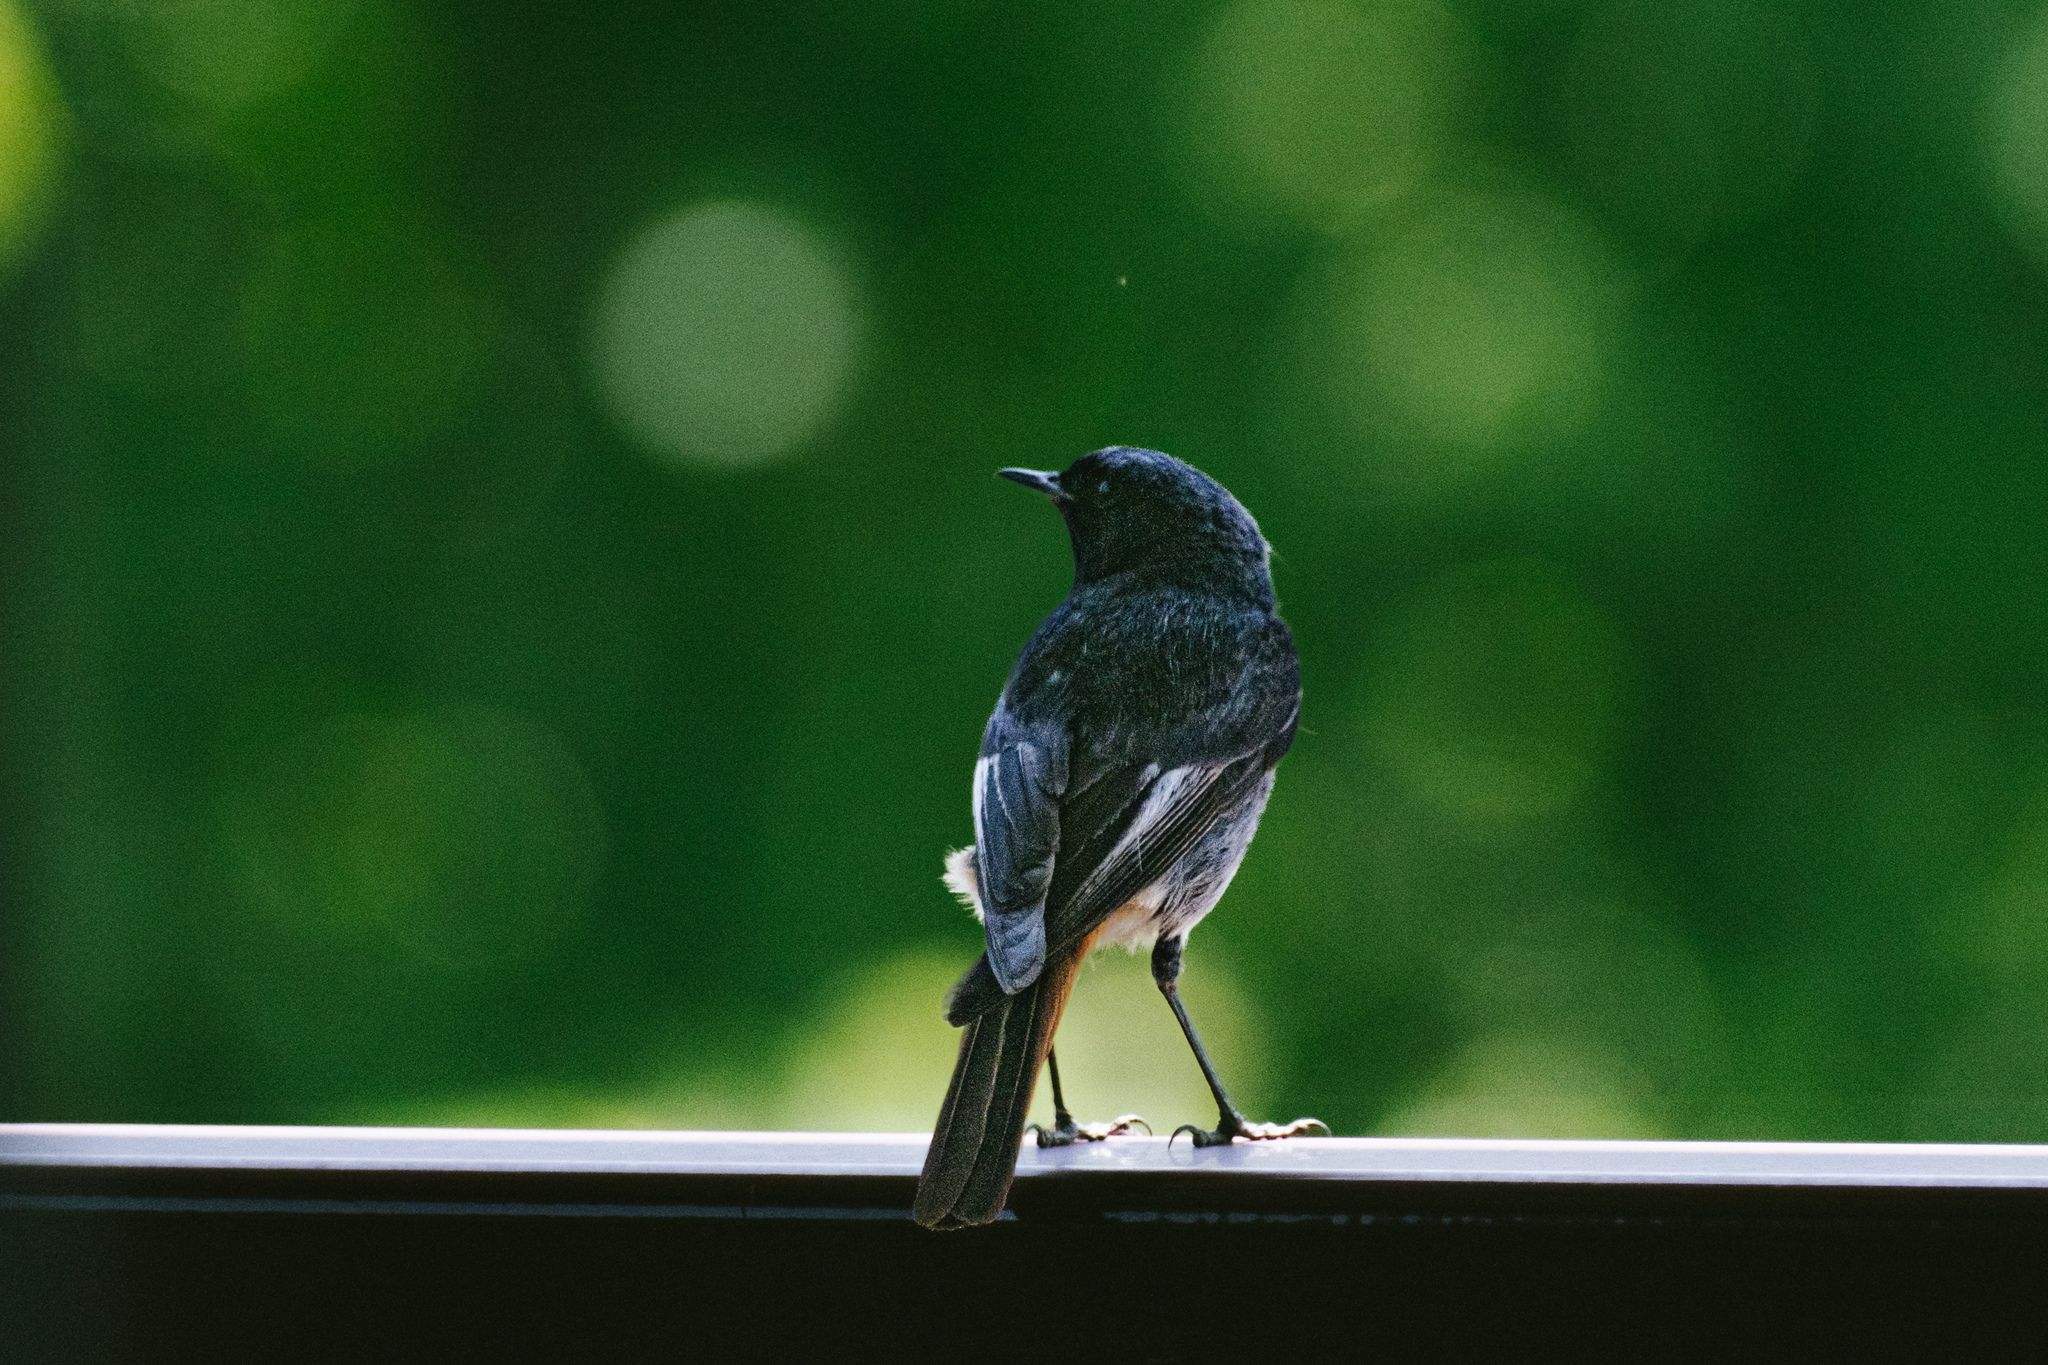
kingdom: Animalia
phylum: Chordata
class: Aves
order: Passeriformes
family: Muscicapidae
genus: Phoenicurus
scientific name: Phoenicurus ochruros
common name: Black redstart
